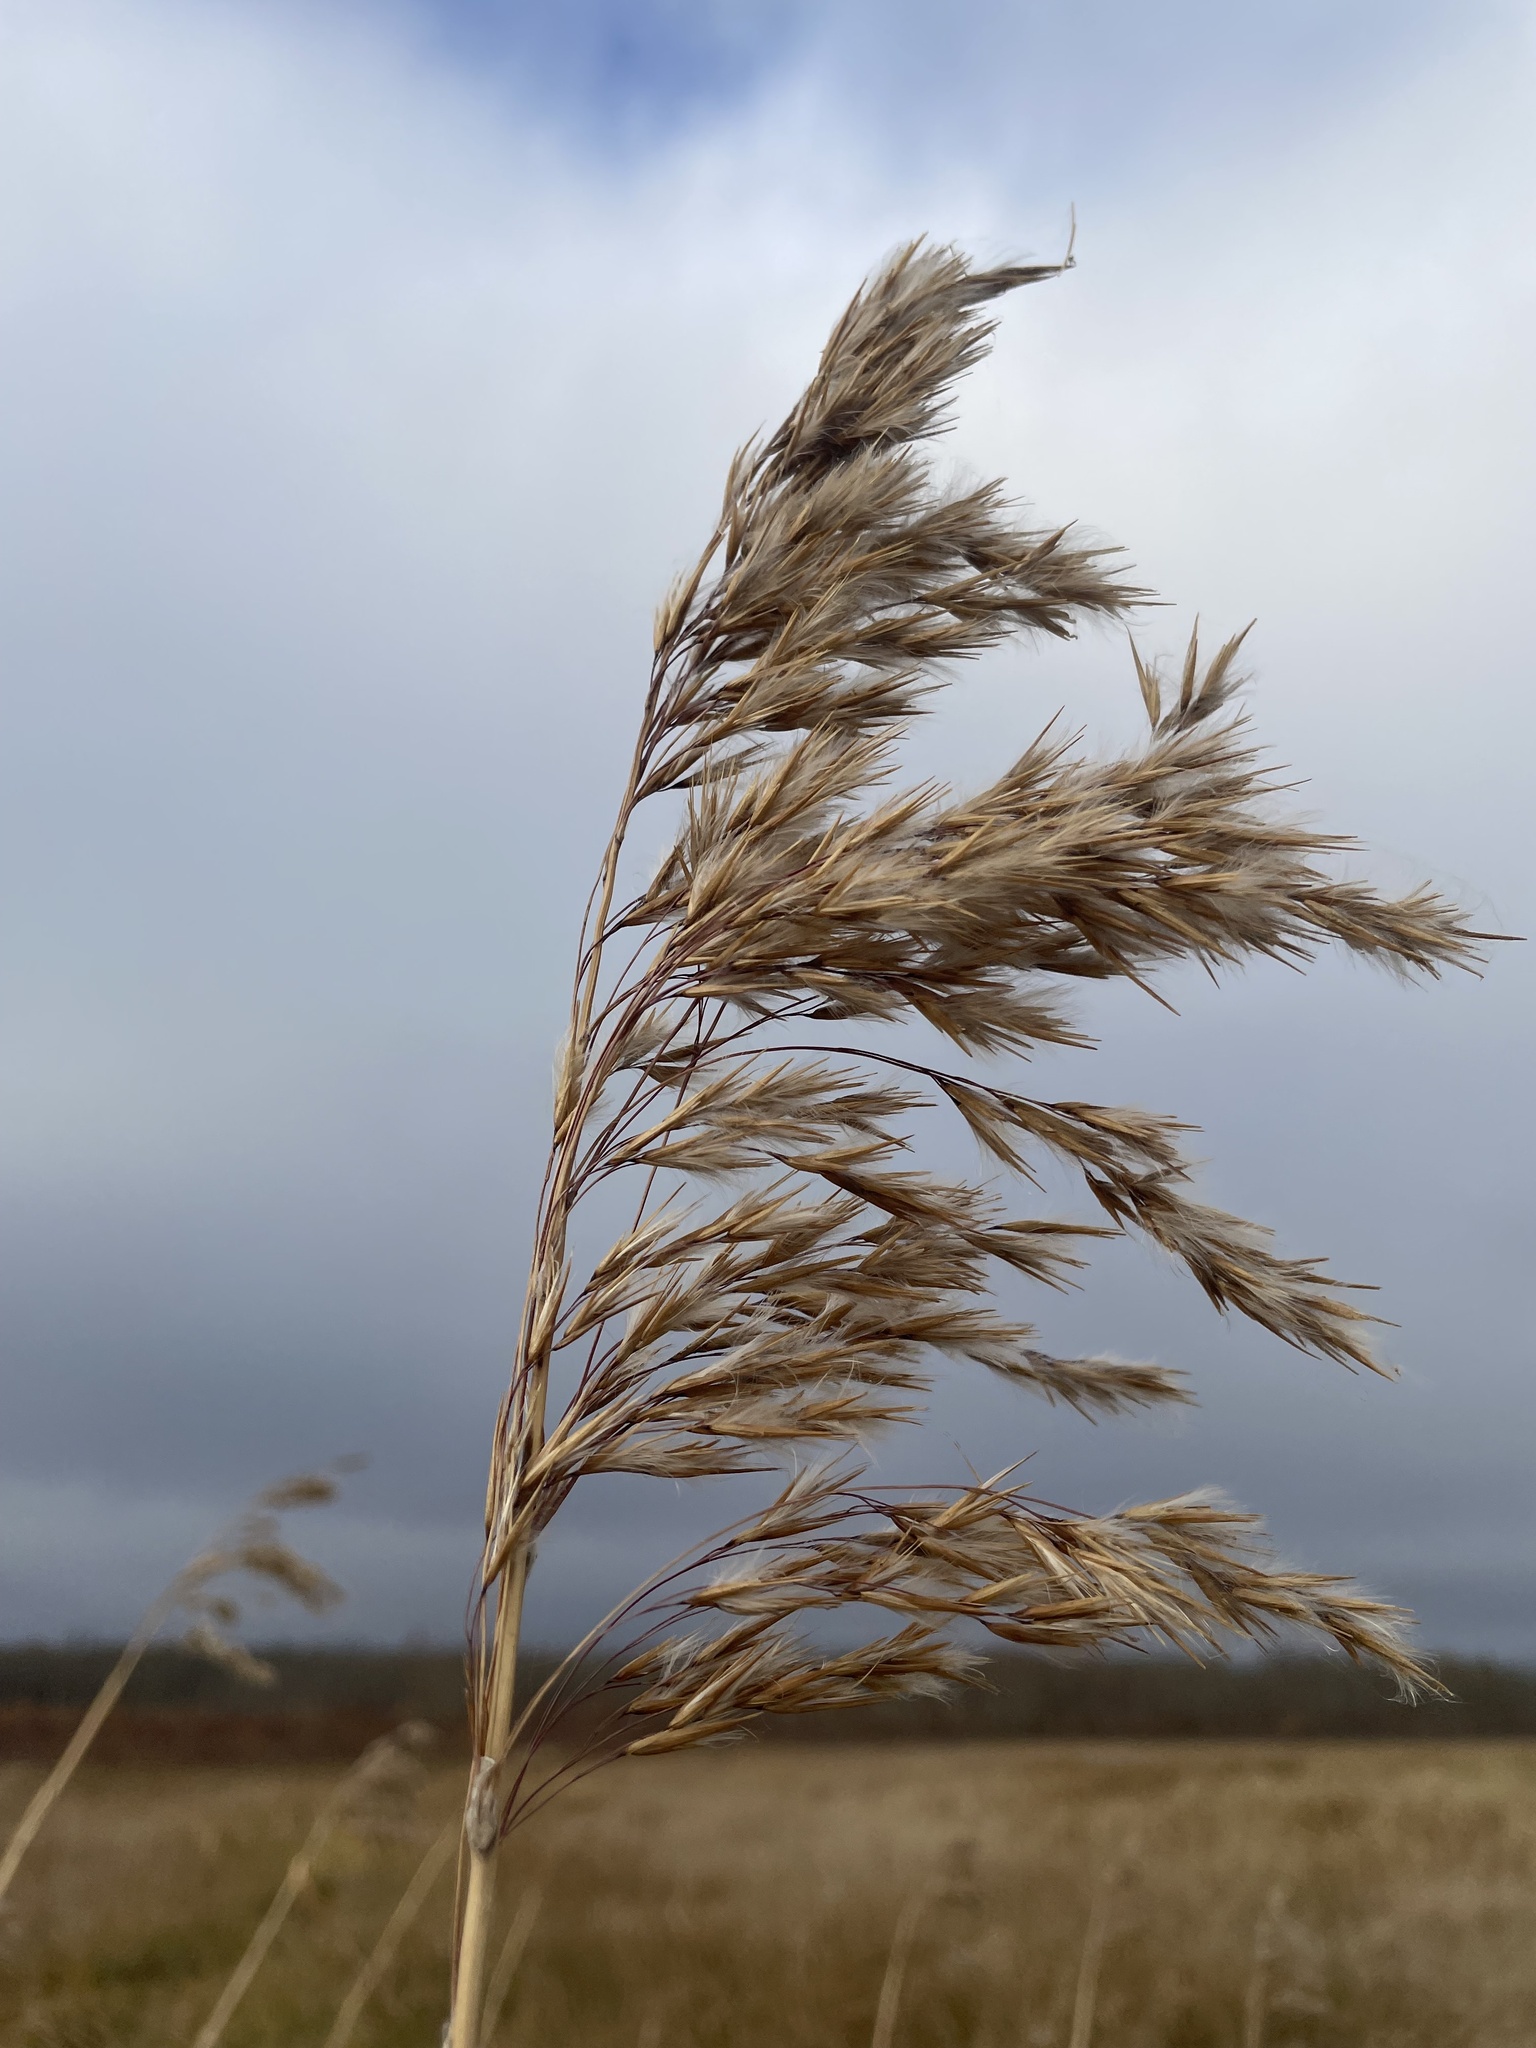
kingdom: Plantae
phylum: Tracheophyta
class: Liliopsida
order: Poales
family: Poaceae
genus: Phragmites
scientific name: Phragmites australis
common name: Common reed
